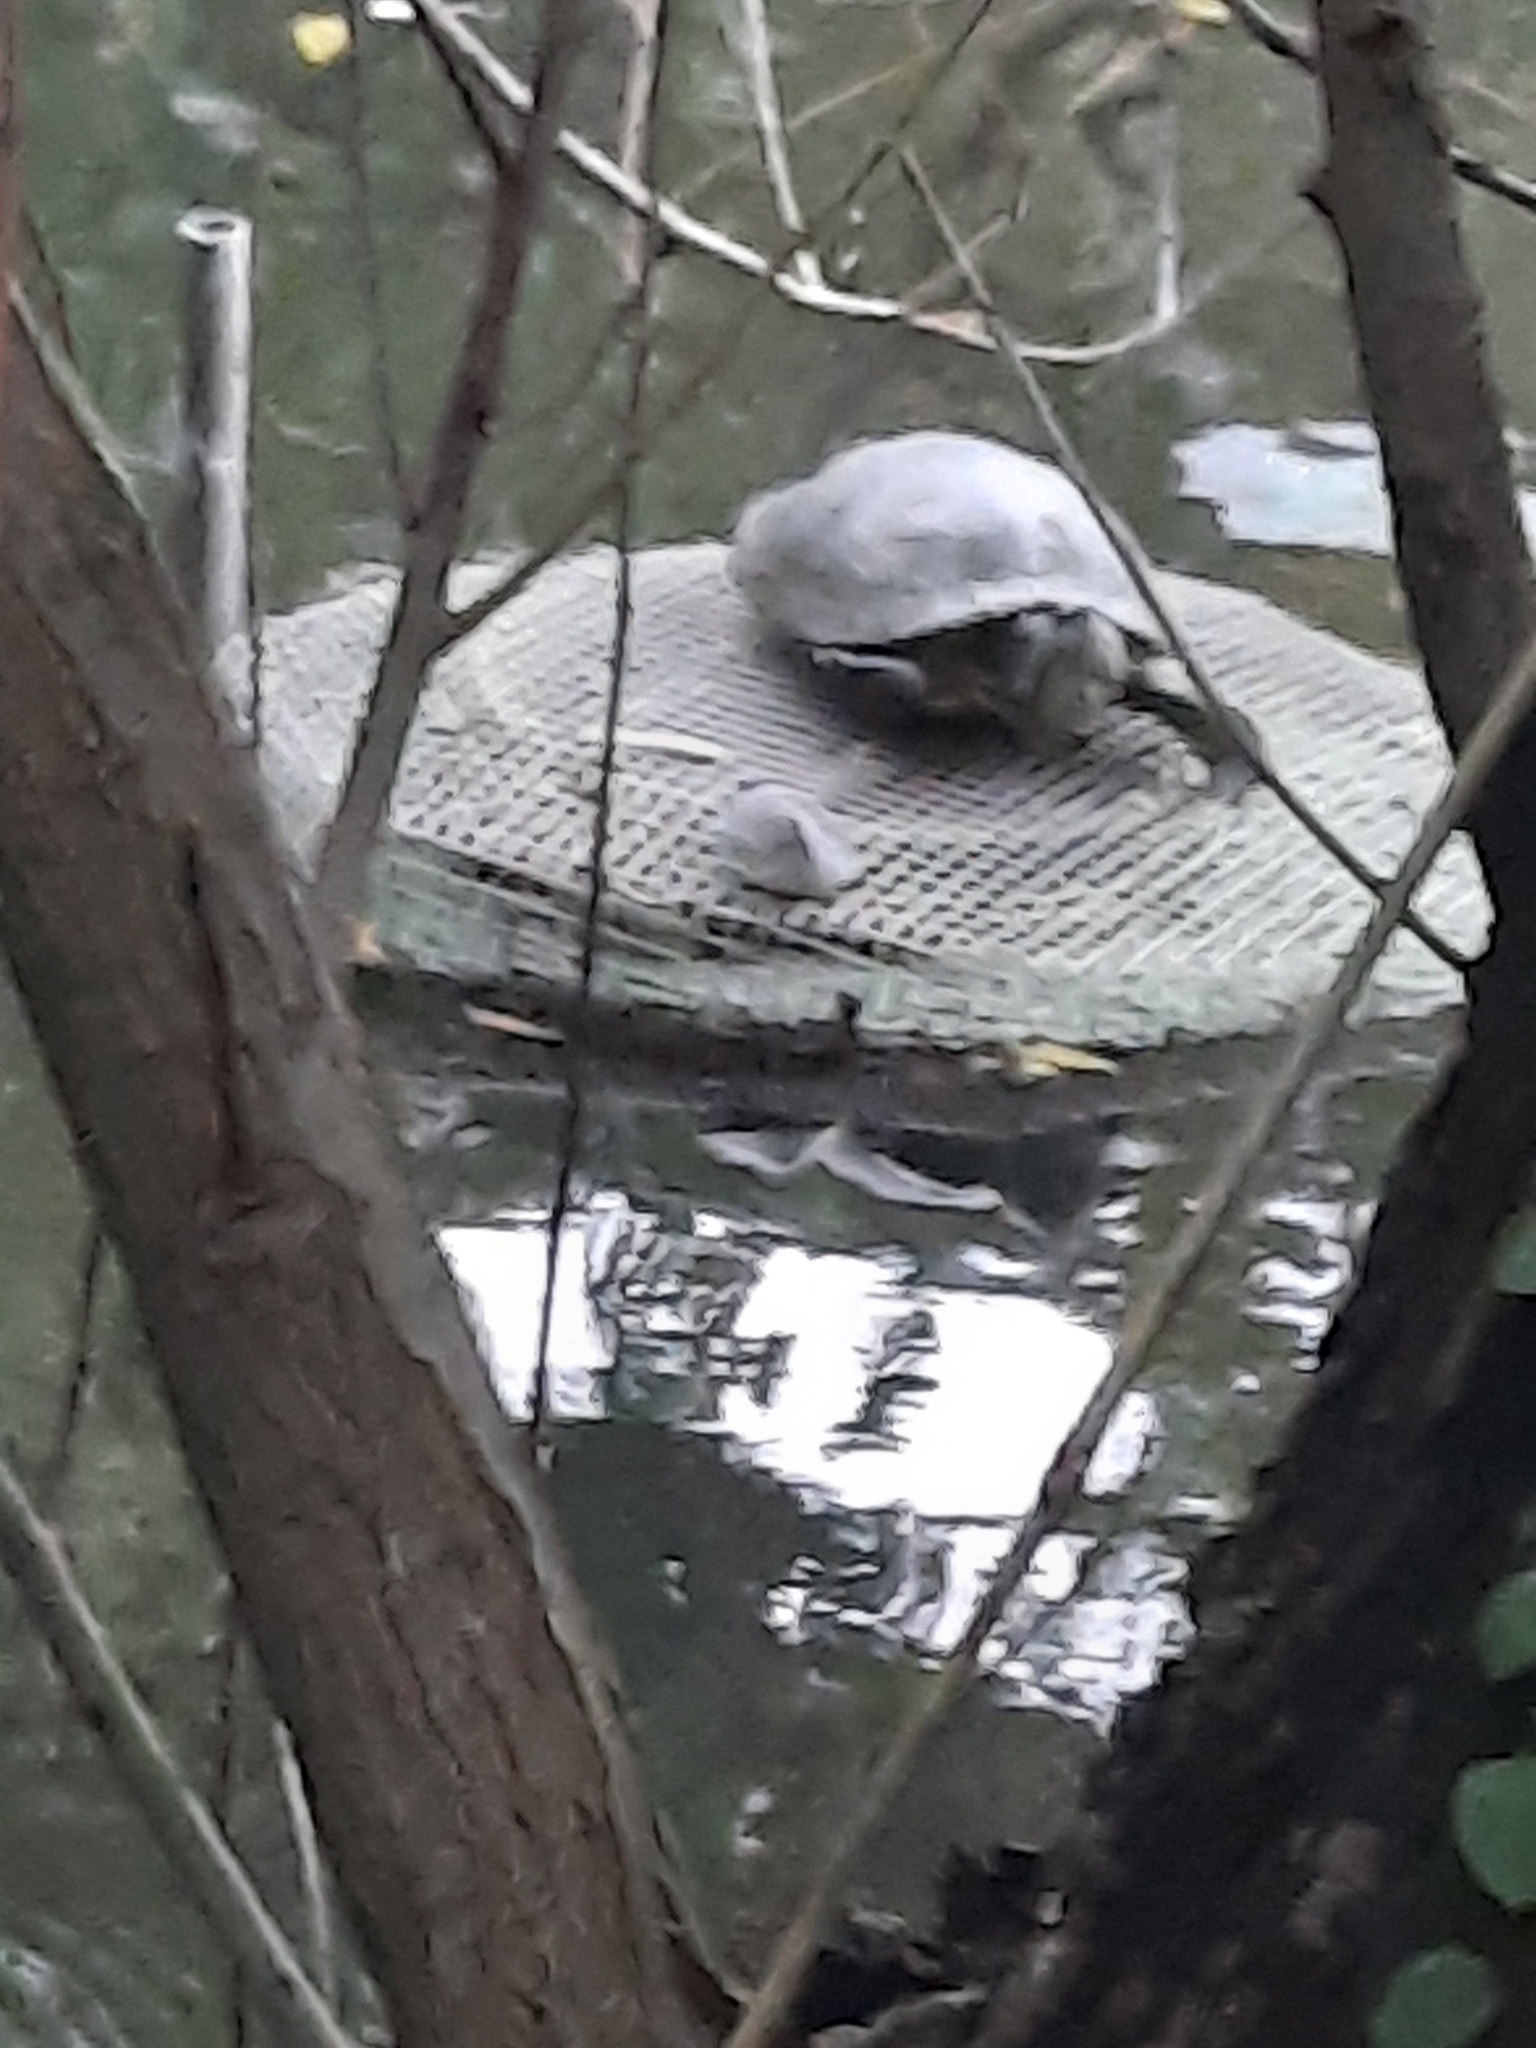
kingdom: Animalia
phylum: Chordata
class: Testudines
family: Emydidae
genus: Trachemys
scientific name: Trachemys scripta
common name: Slider
